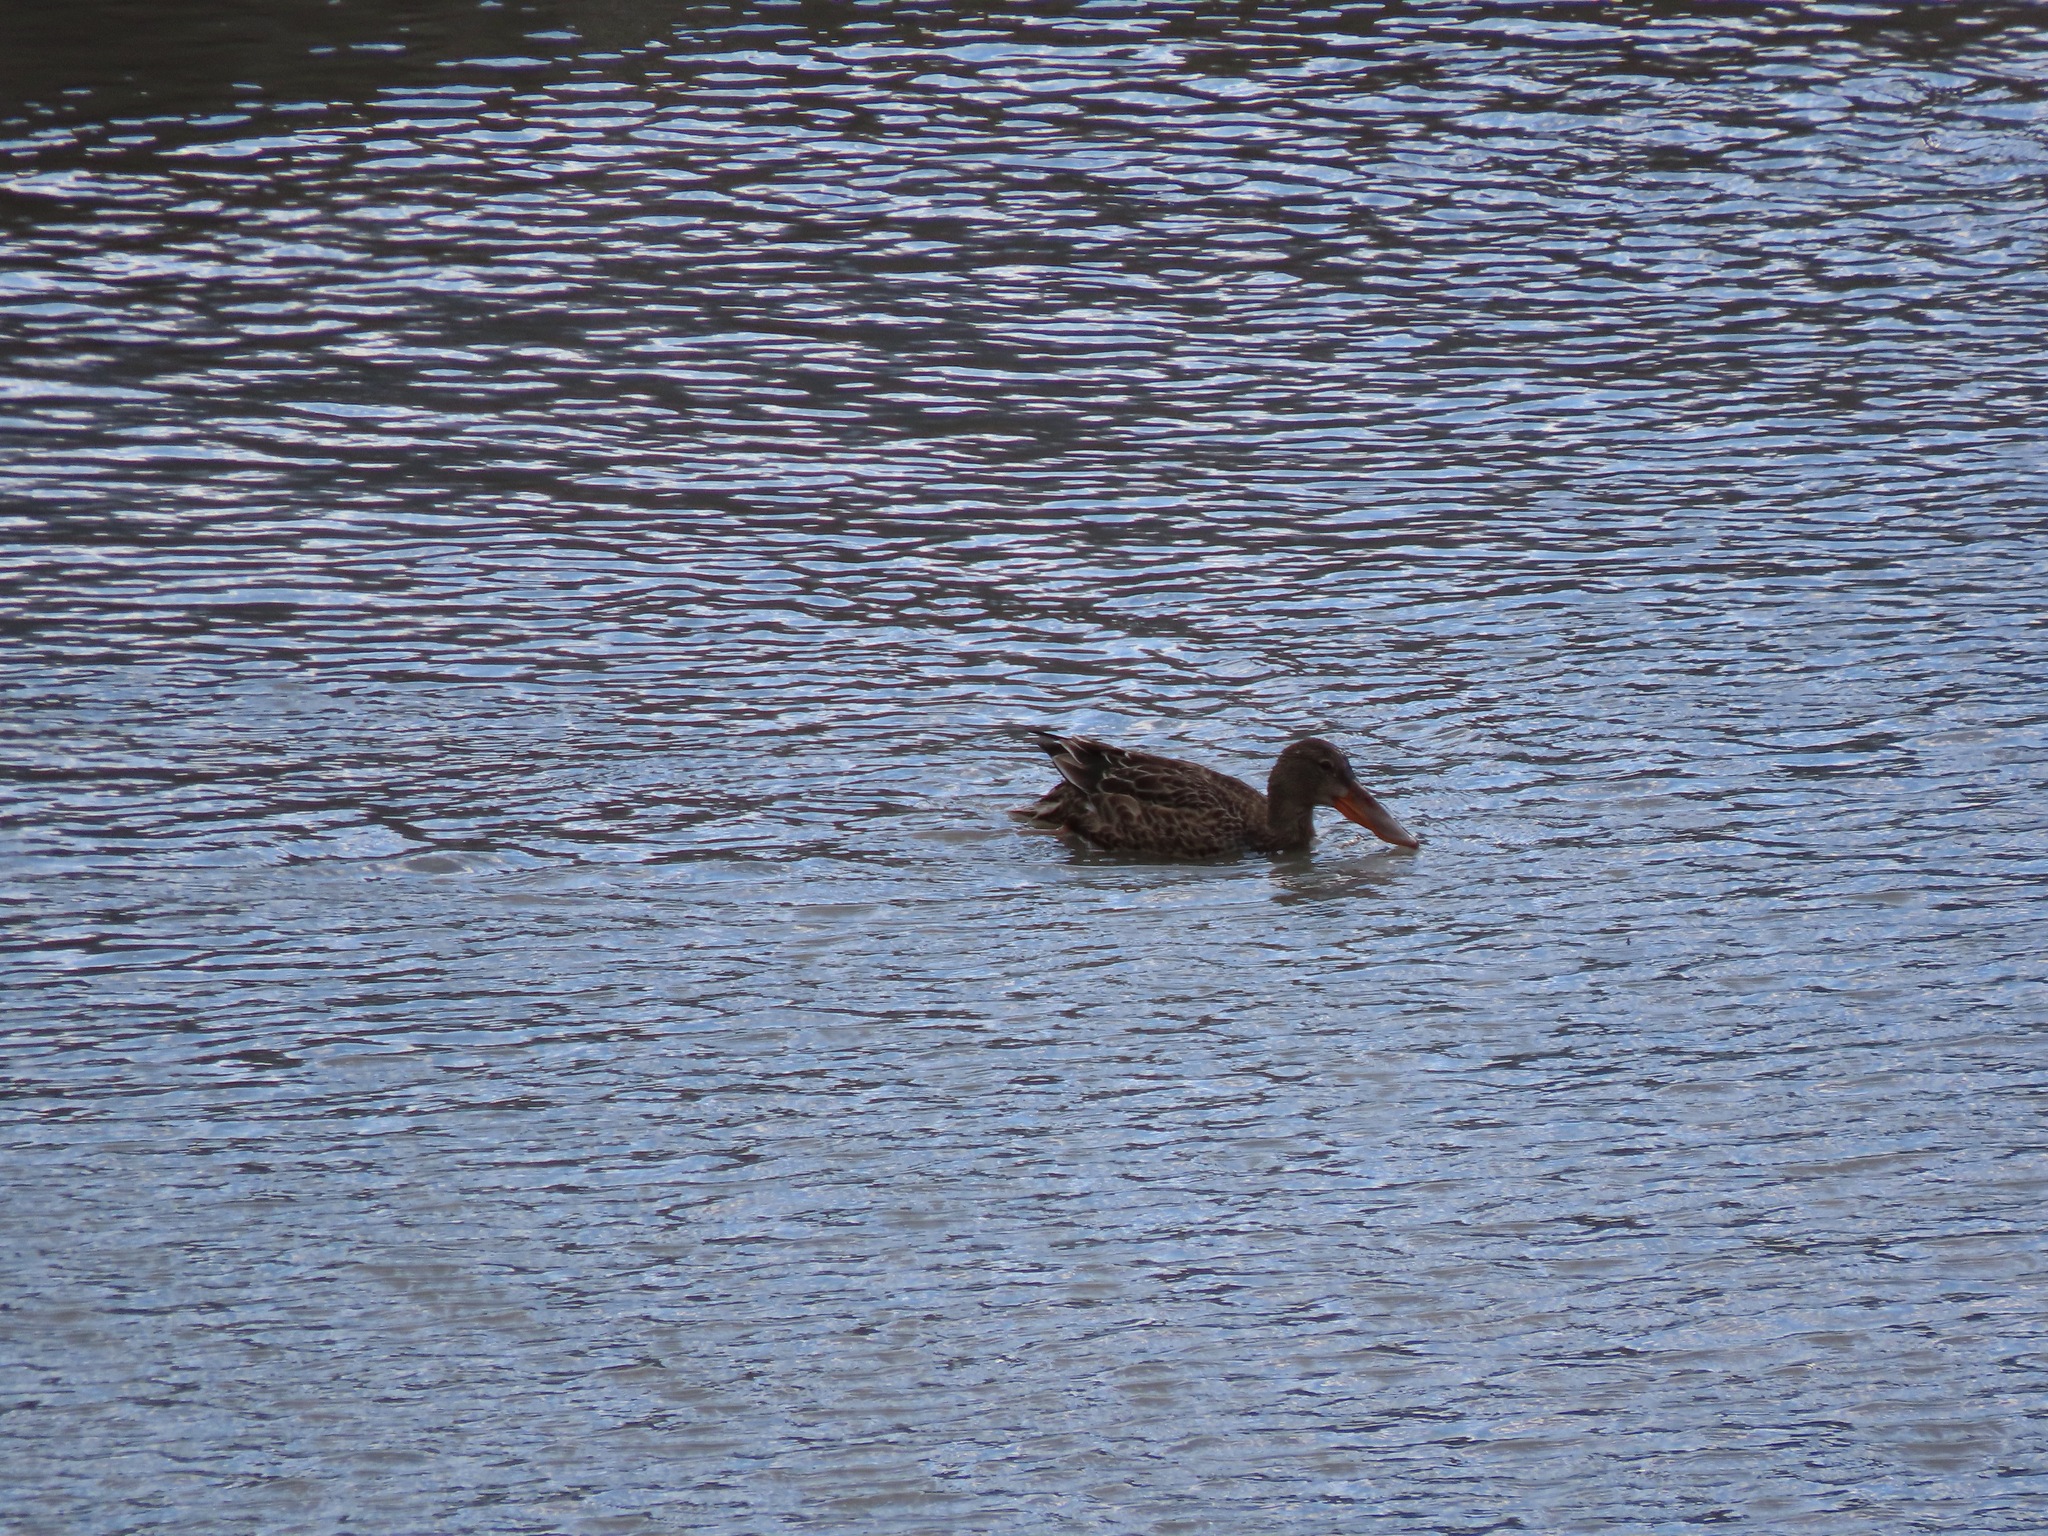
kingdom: Animalia
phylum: Chordata
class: Aves
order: Anseriformes
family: Anatidae
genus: Spatula
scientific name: Spatula clypeata
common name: Northern shoveler
